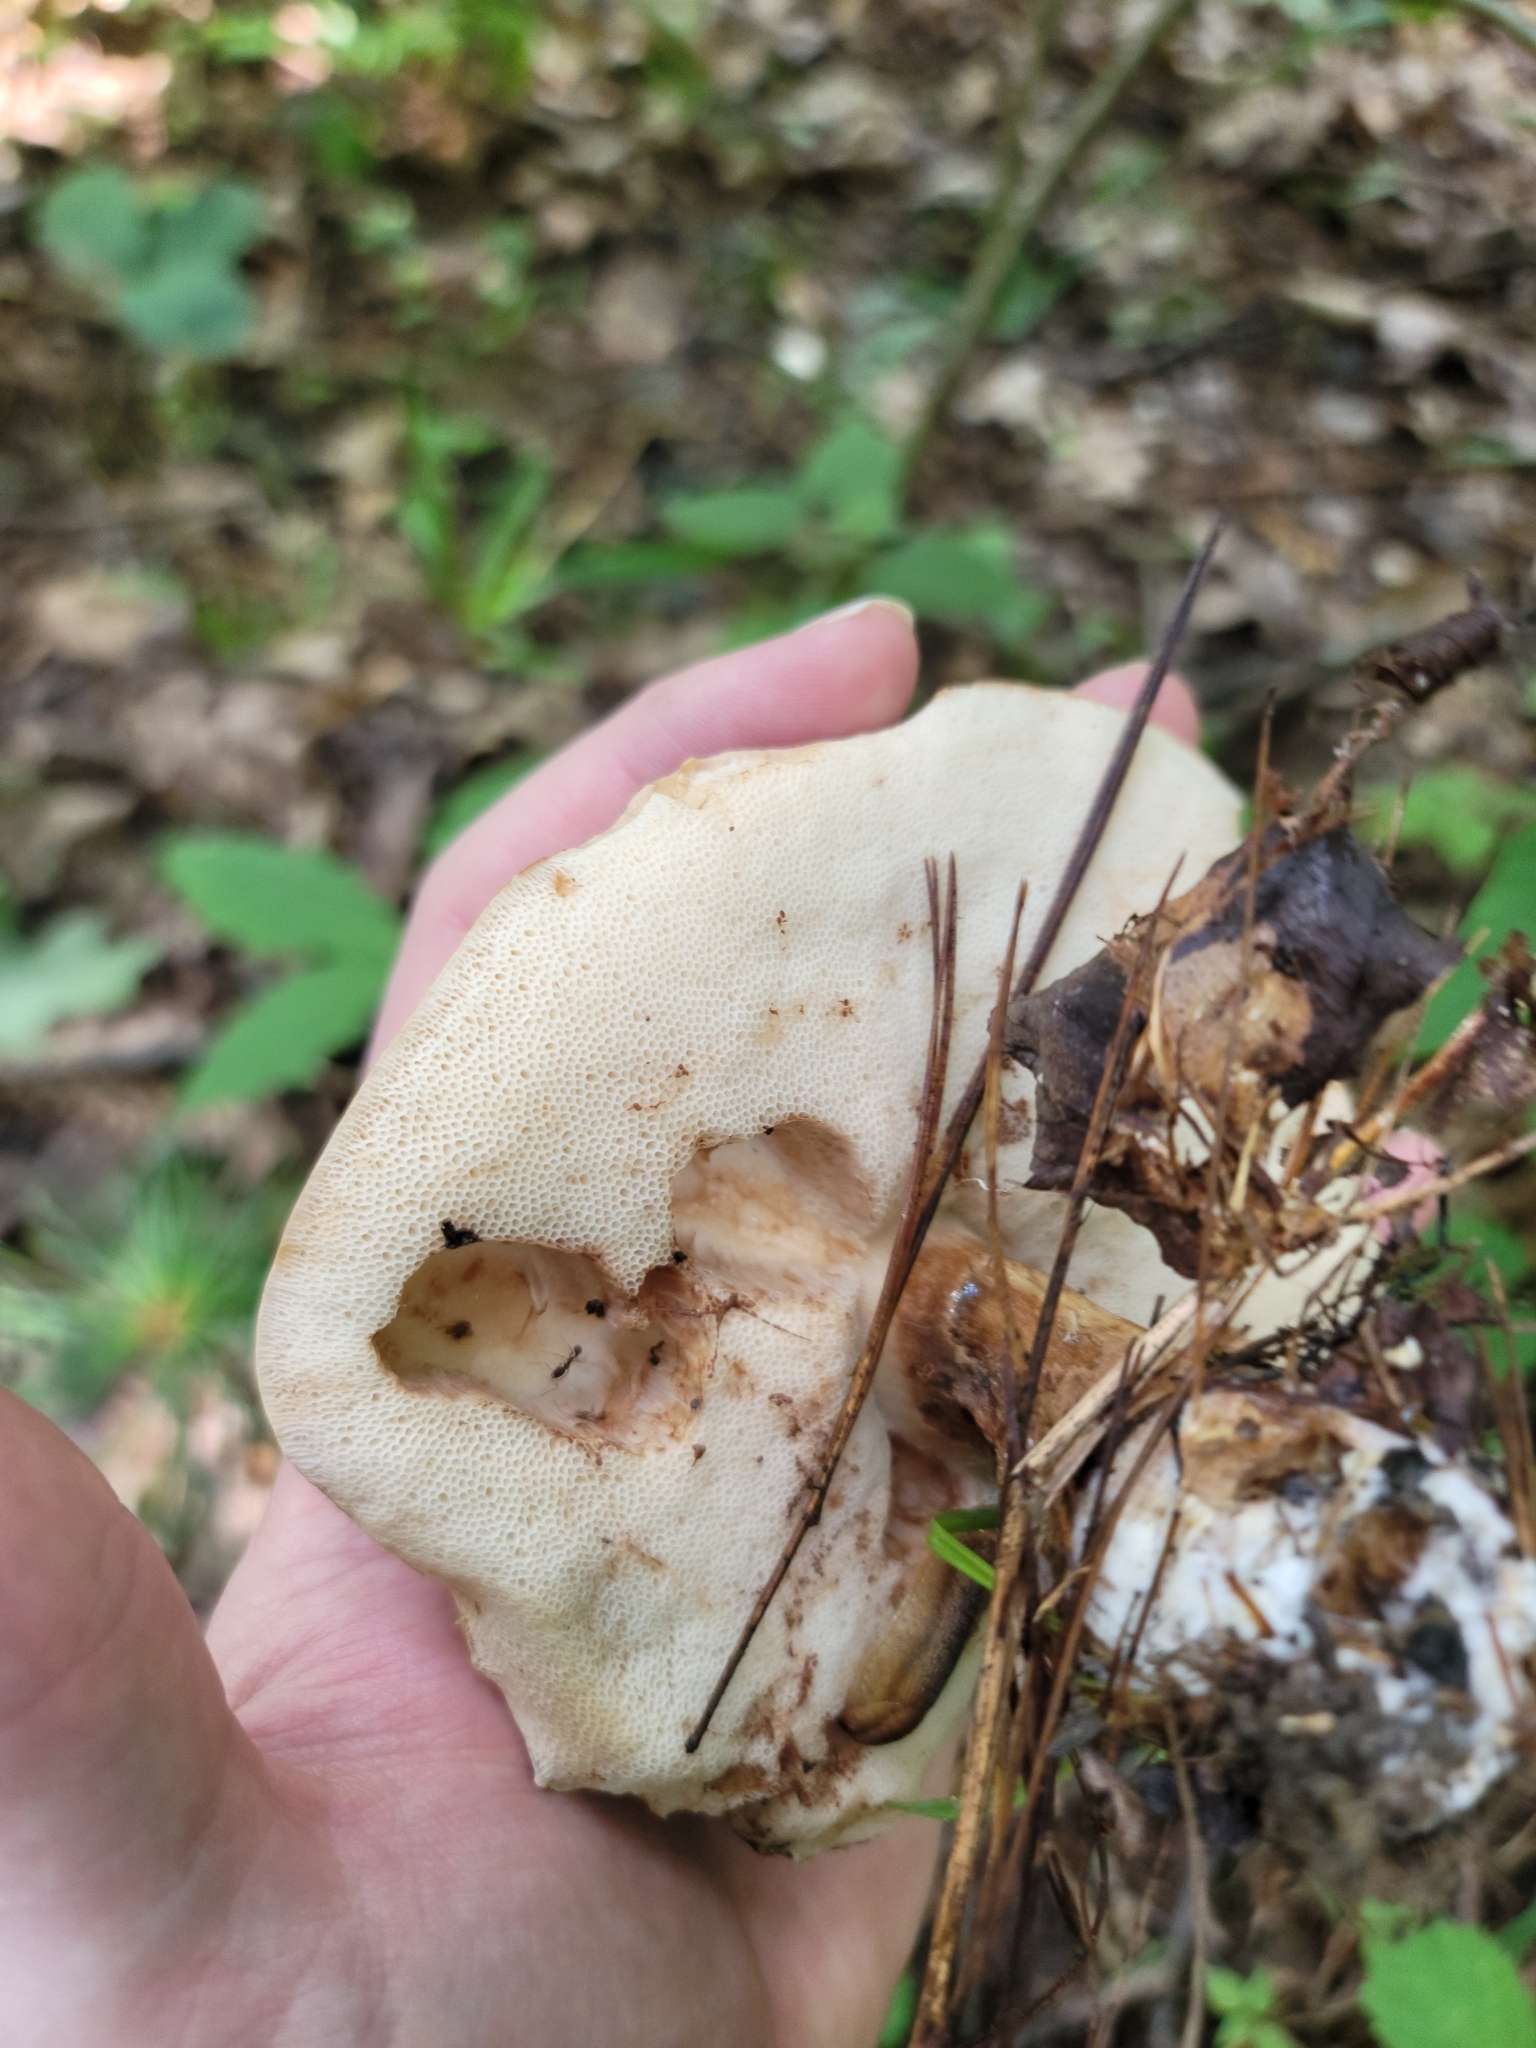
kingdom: Fungi
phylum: Basidiomycota
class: Agaricomycetes
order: Boletales
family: Boletaceae
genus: Tylopilus
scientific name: Tylopilus rubrobrunneus
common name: Reddish brown bitter bolete
